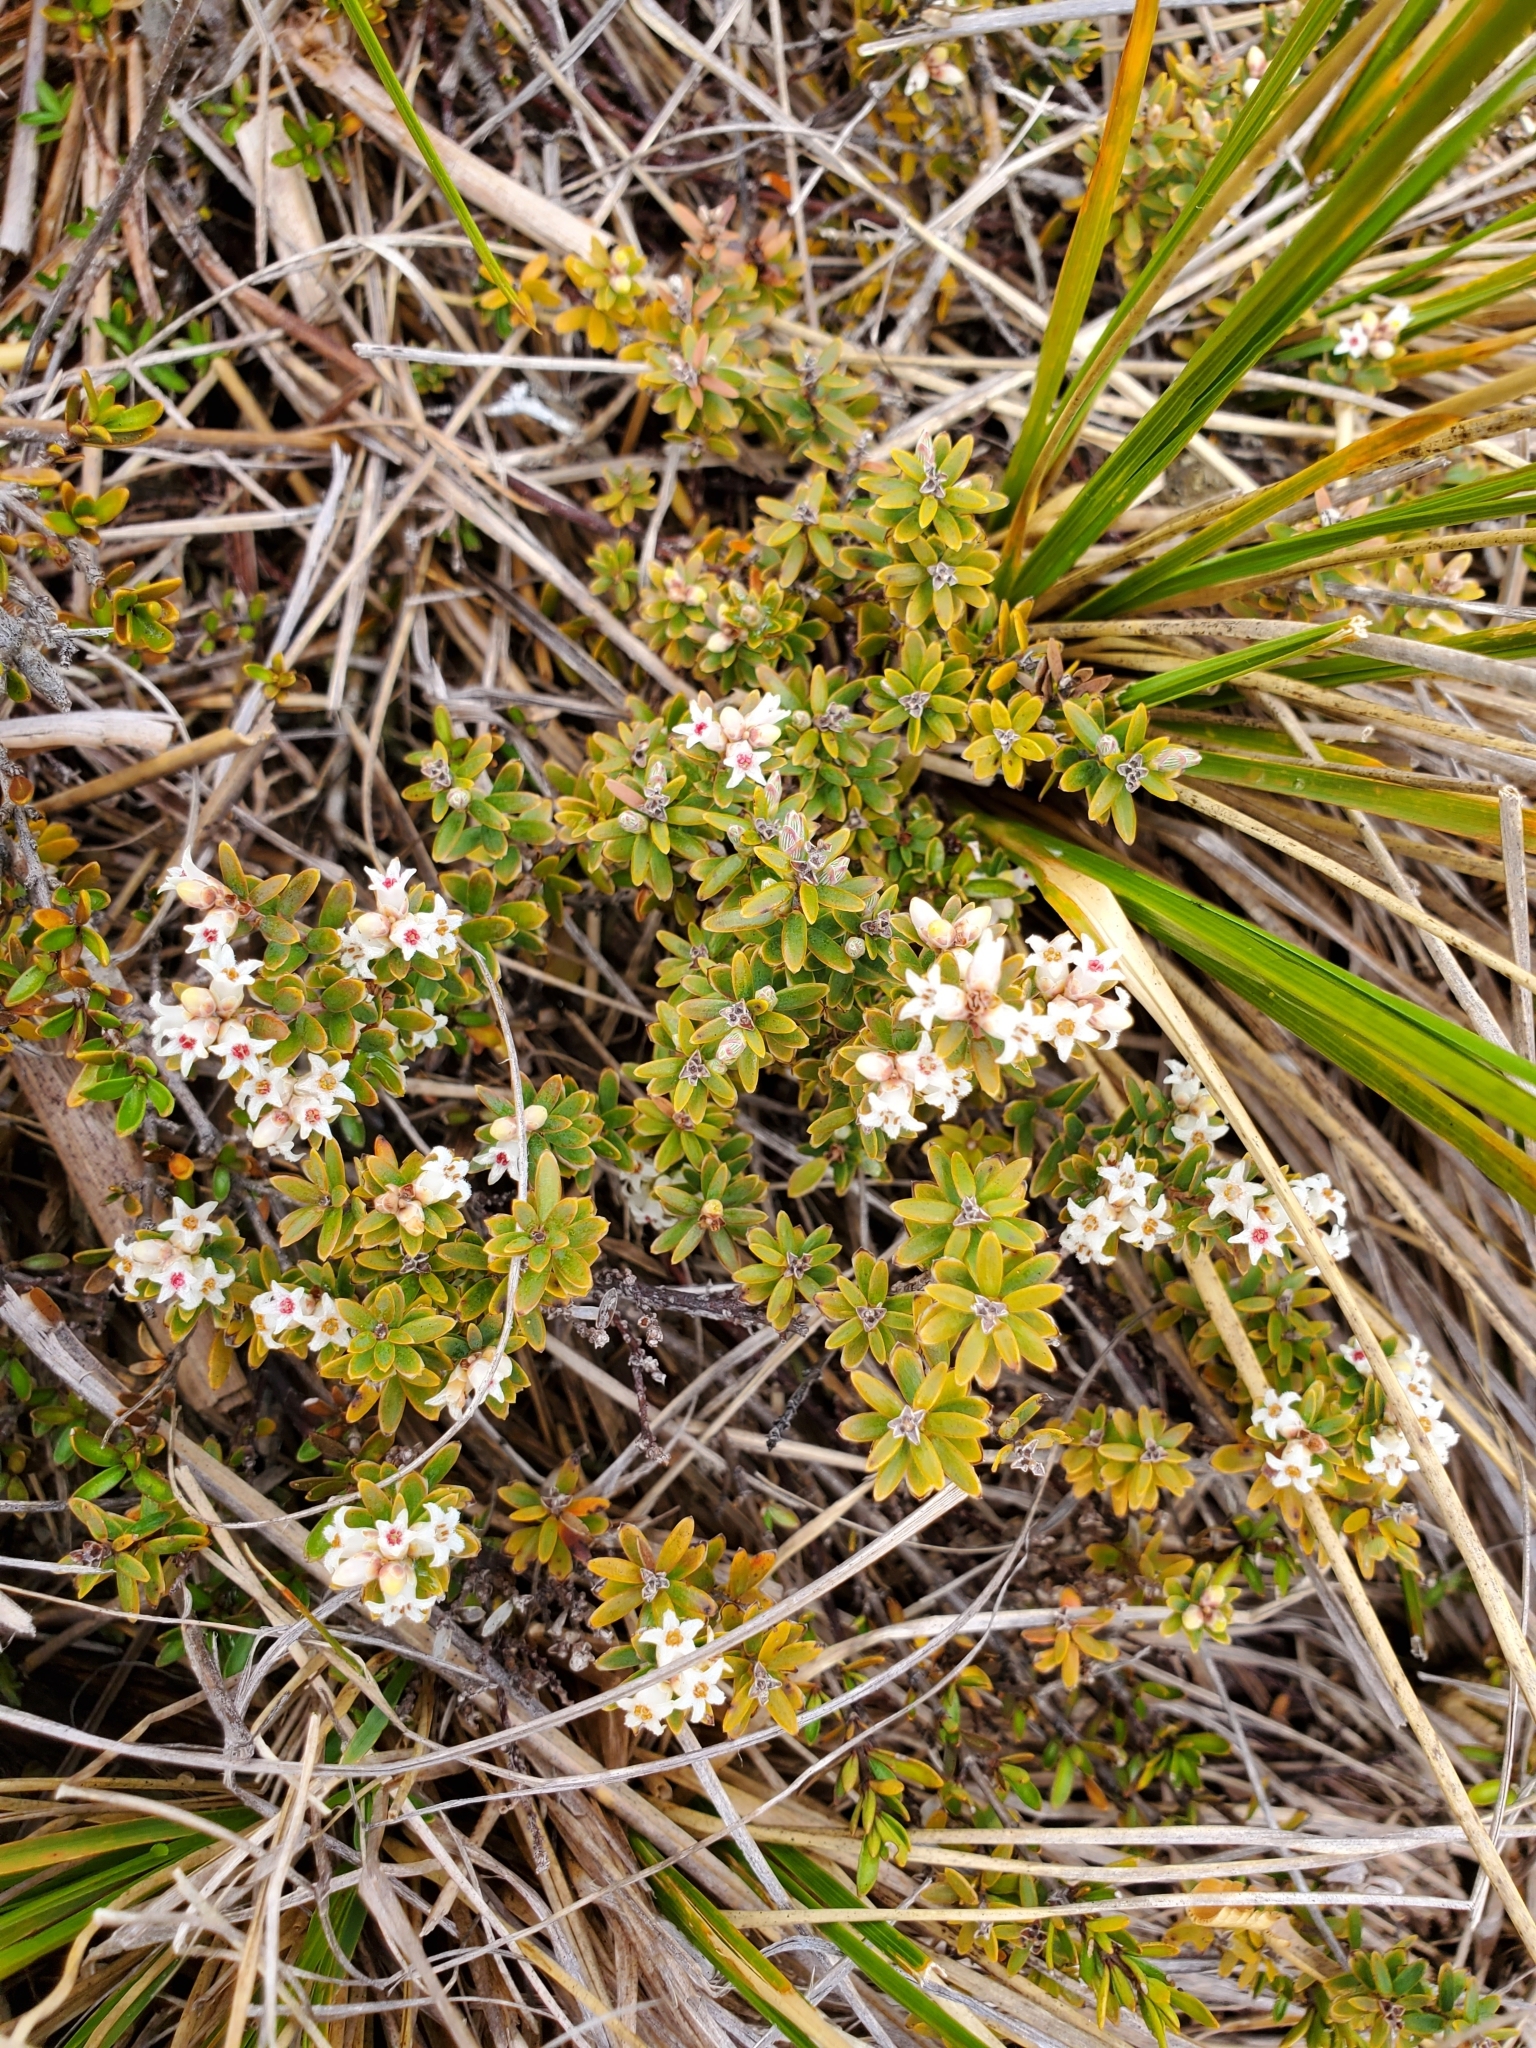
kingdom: Plantae
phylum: Tracheophyta
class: Magnoliopsida
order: Ericales
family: Ericaceae
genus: Acrothamnus
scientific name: Acrothamnus colensoi
